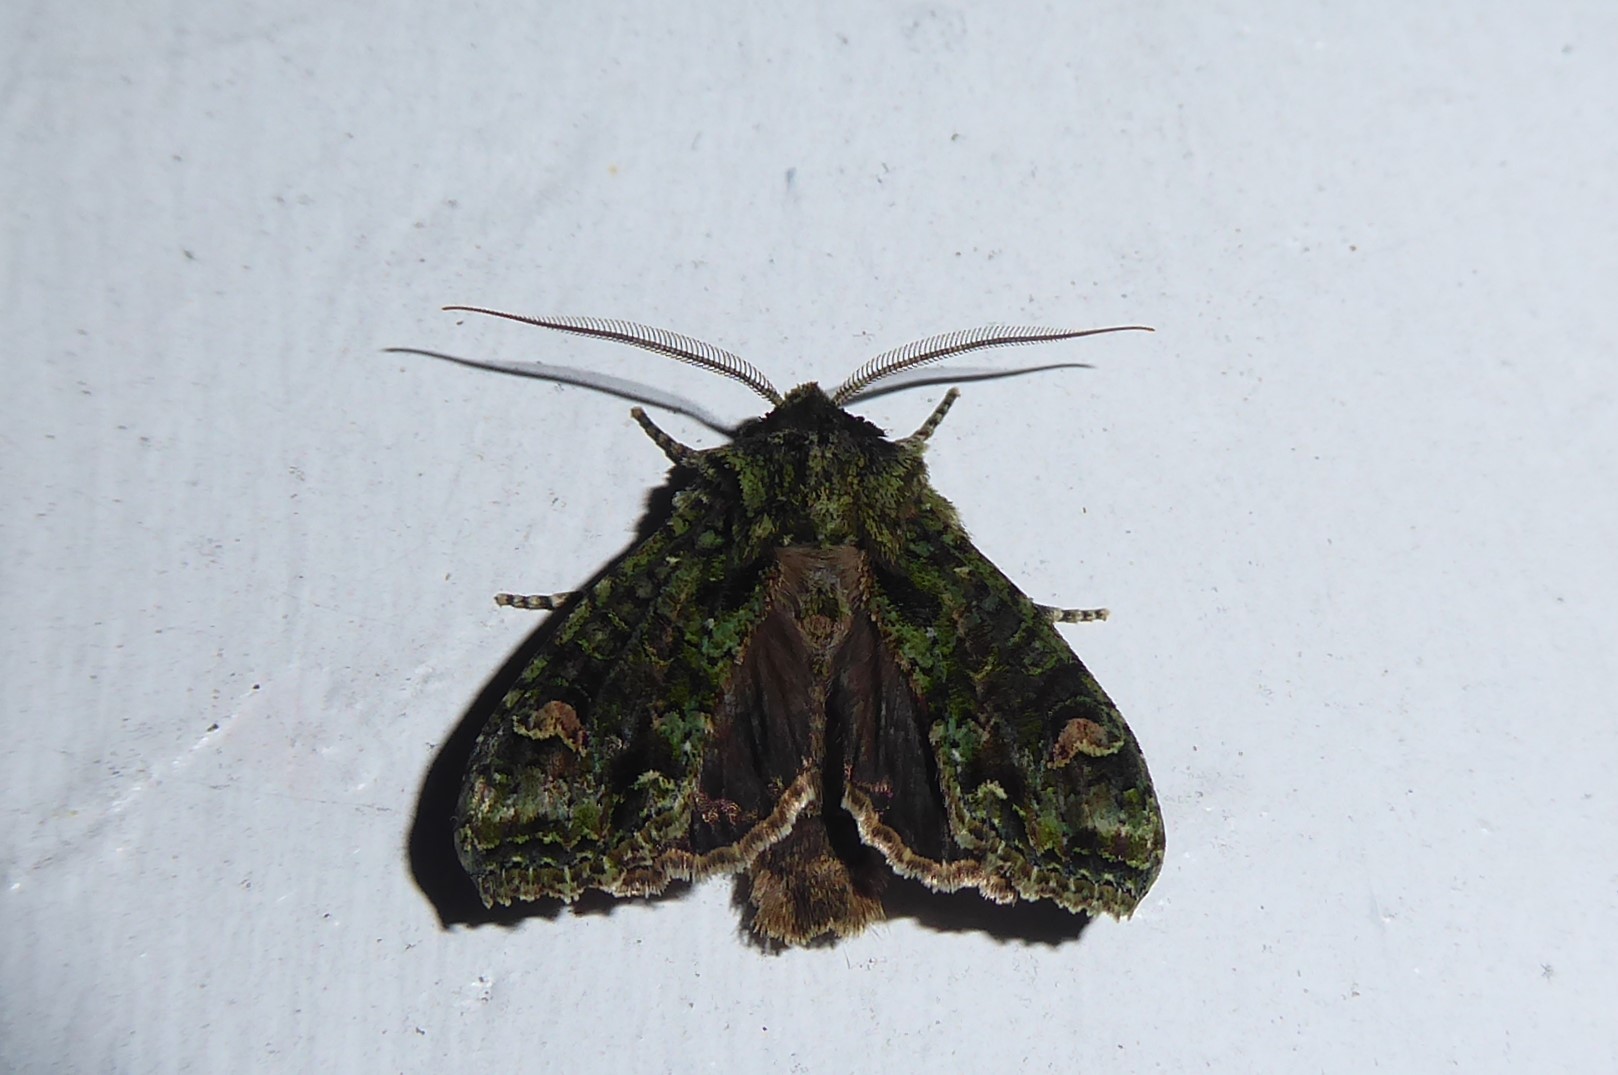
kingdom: Animalia
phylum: Arthropoda
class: Insecta
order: Lepidoptera
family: Noctuidae
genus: Ichneutica
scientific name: Ichneutica
